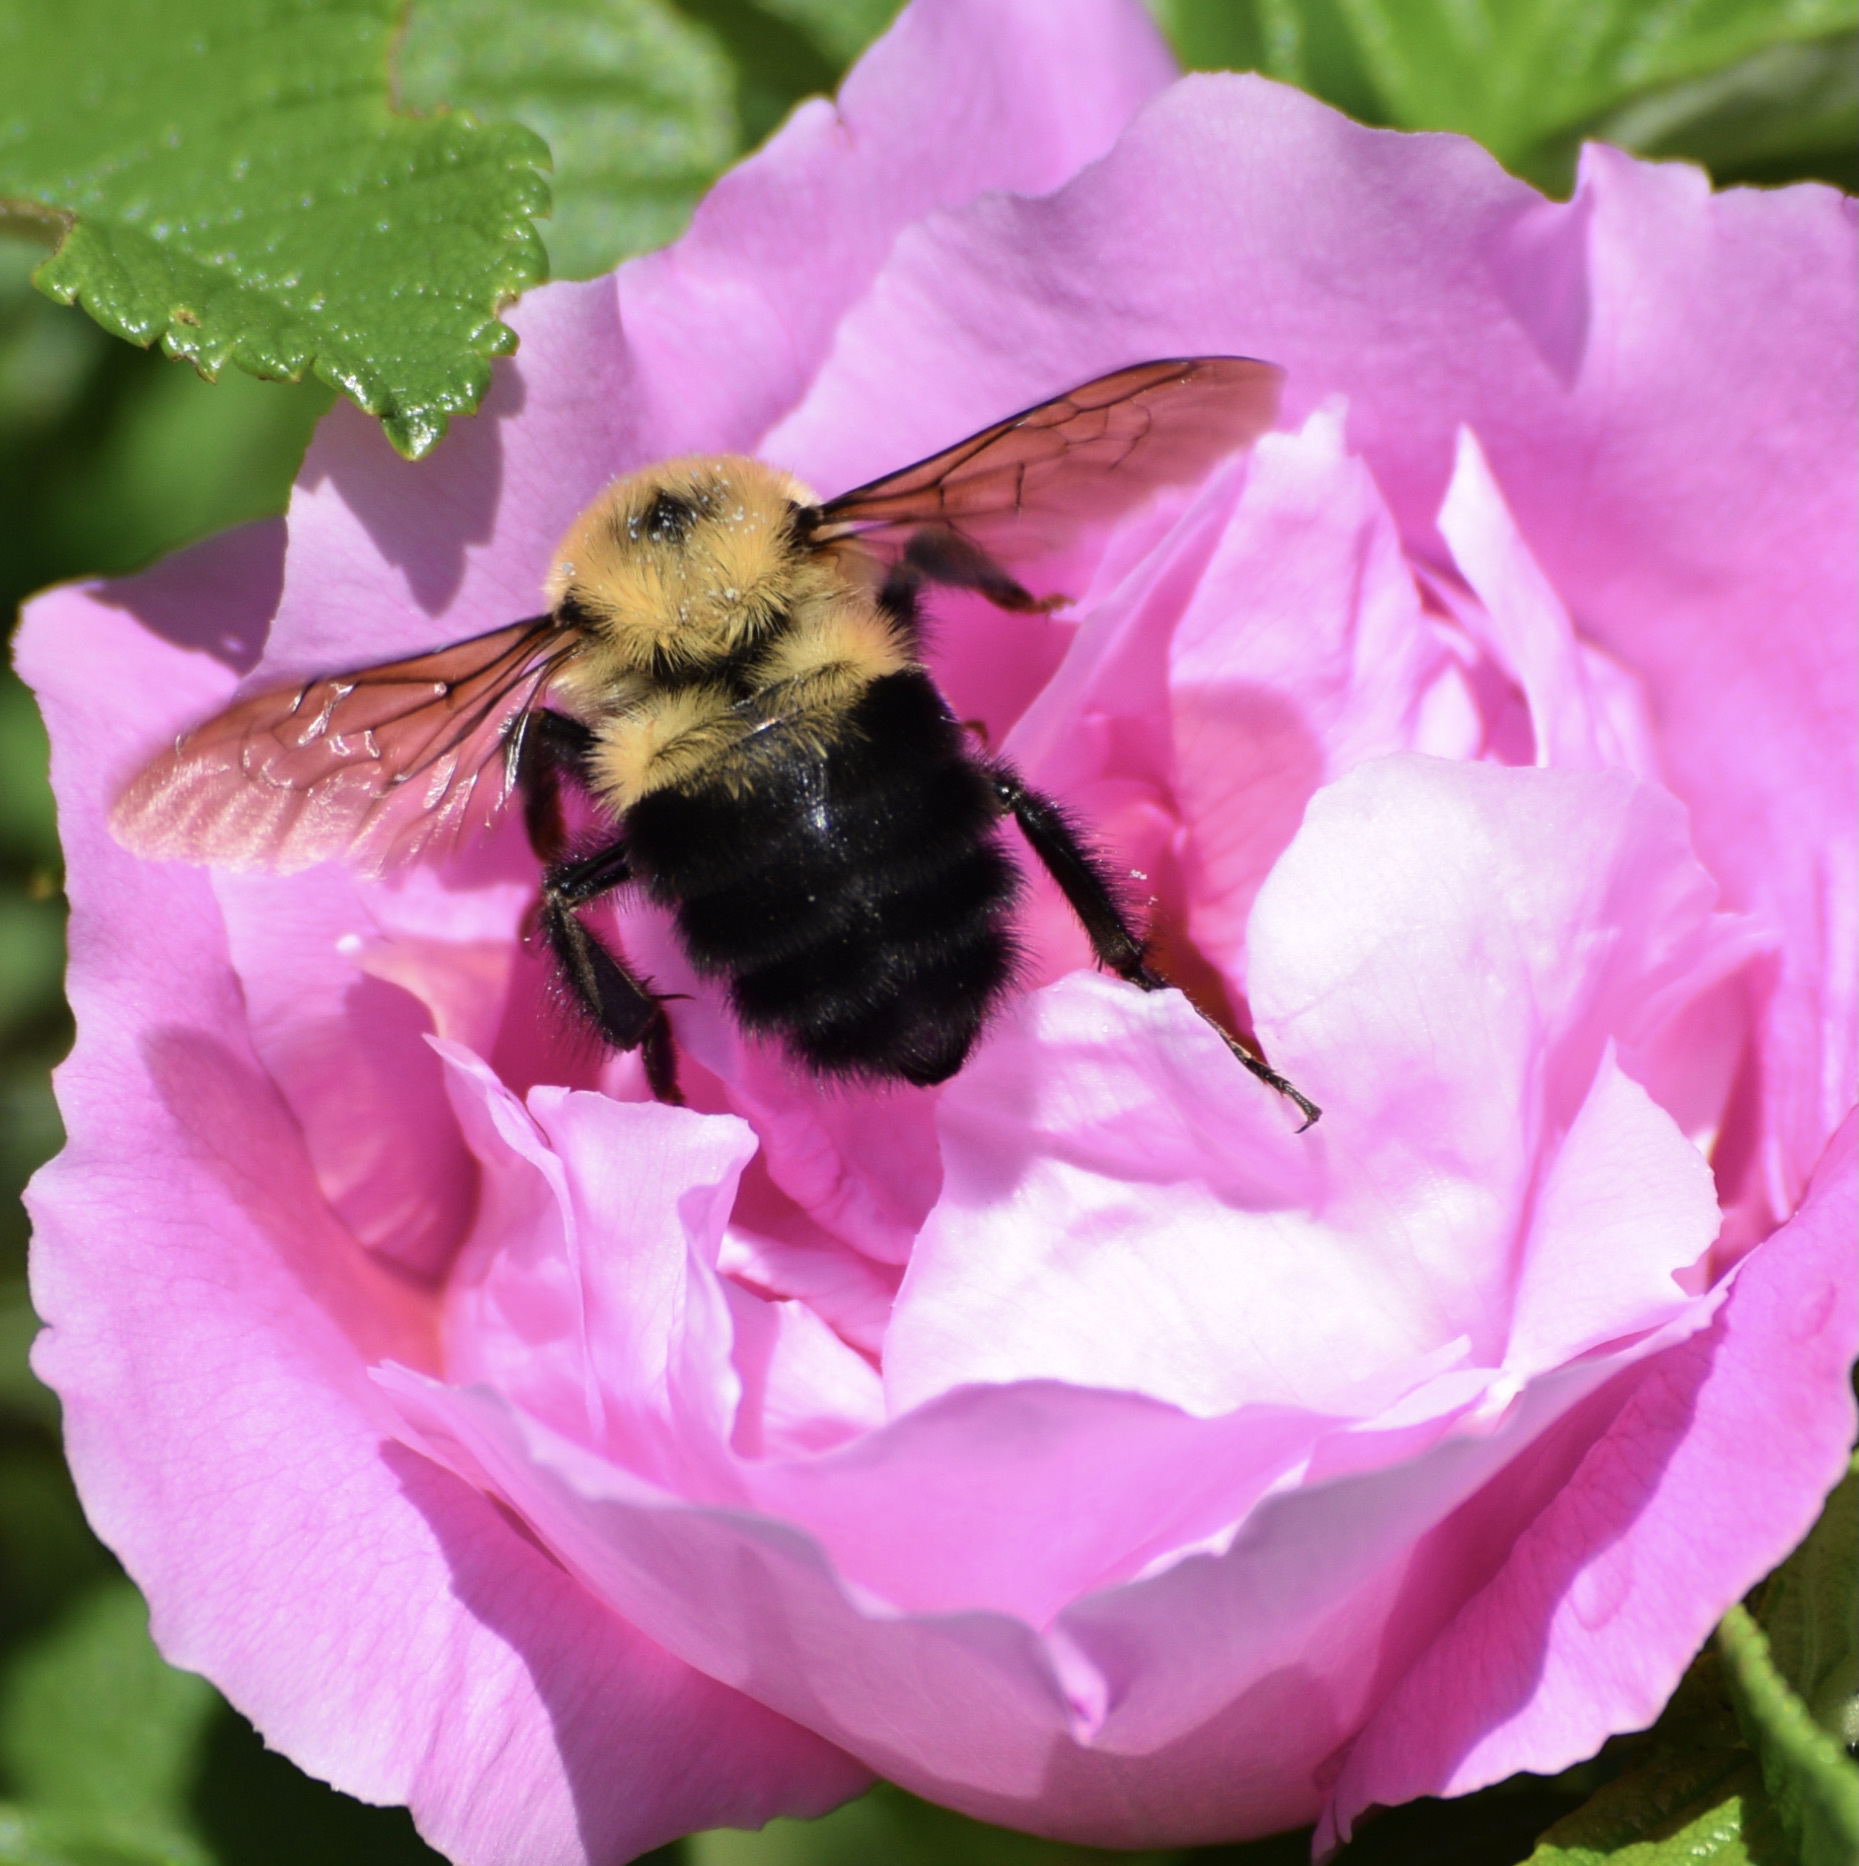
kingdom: Animalia
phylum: Arthropoda
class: Insecta
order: Hymenoptera
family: Apidae
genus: Bombus
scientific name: Bombus bimaculatus
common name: Two-spotted bumble bee
